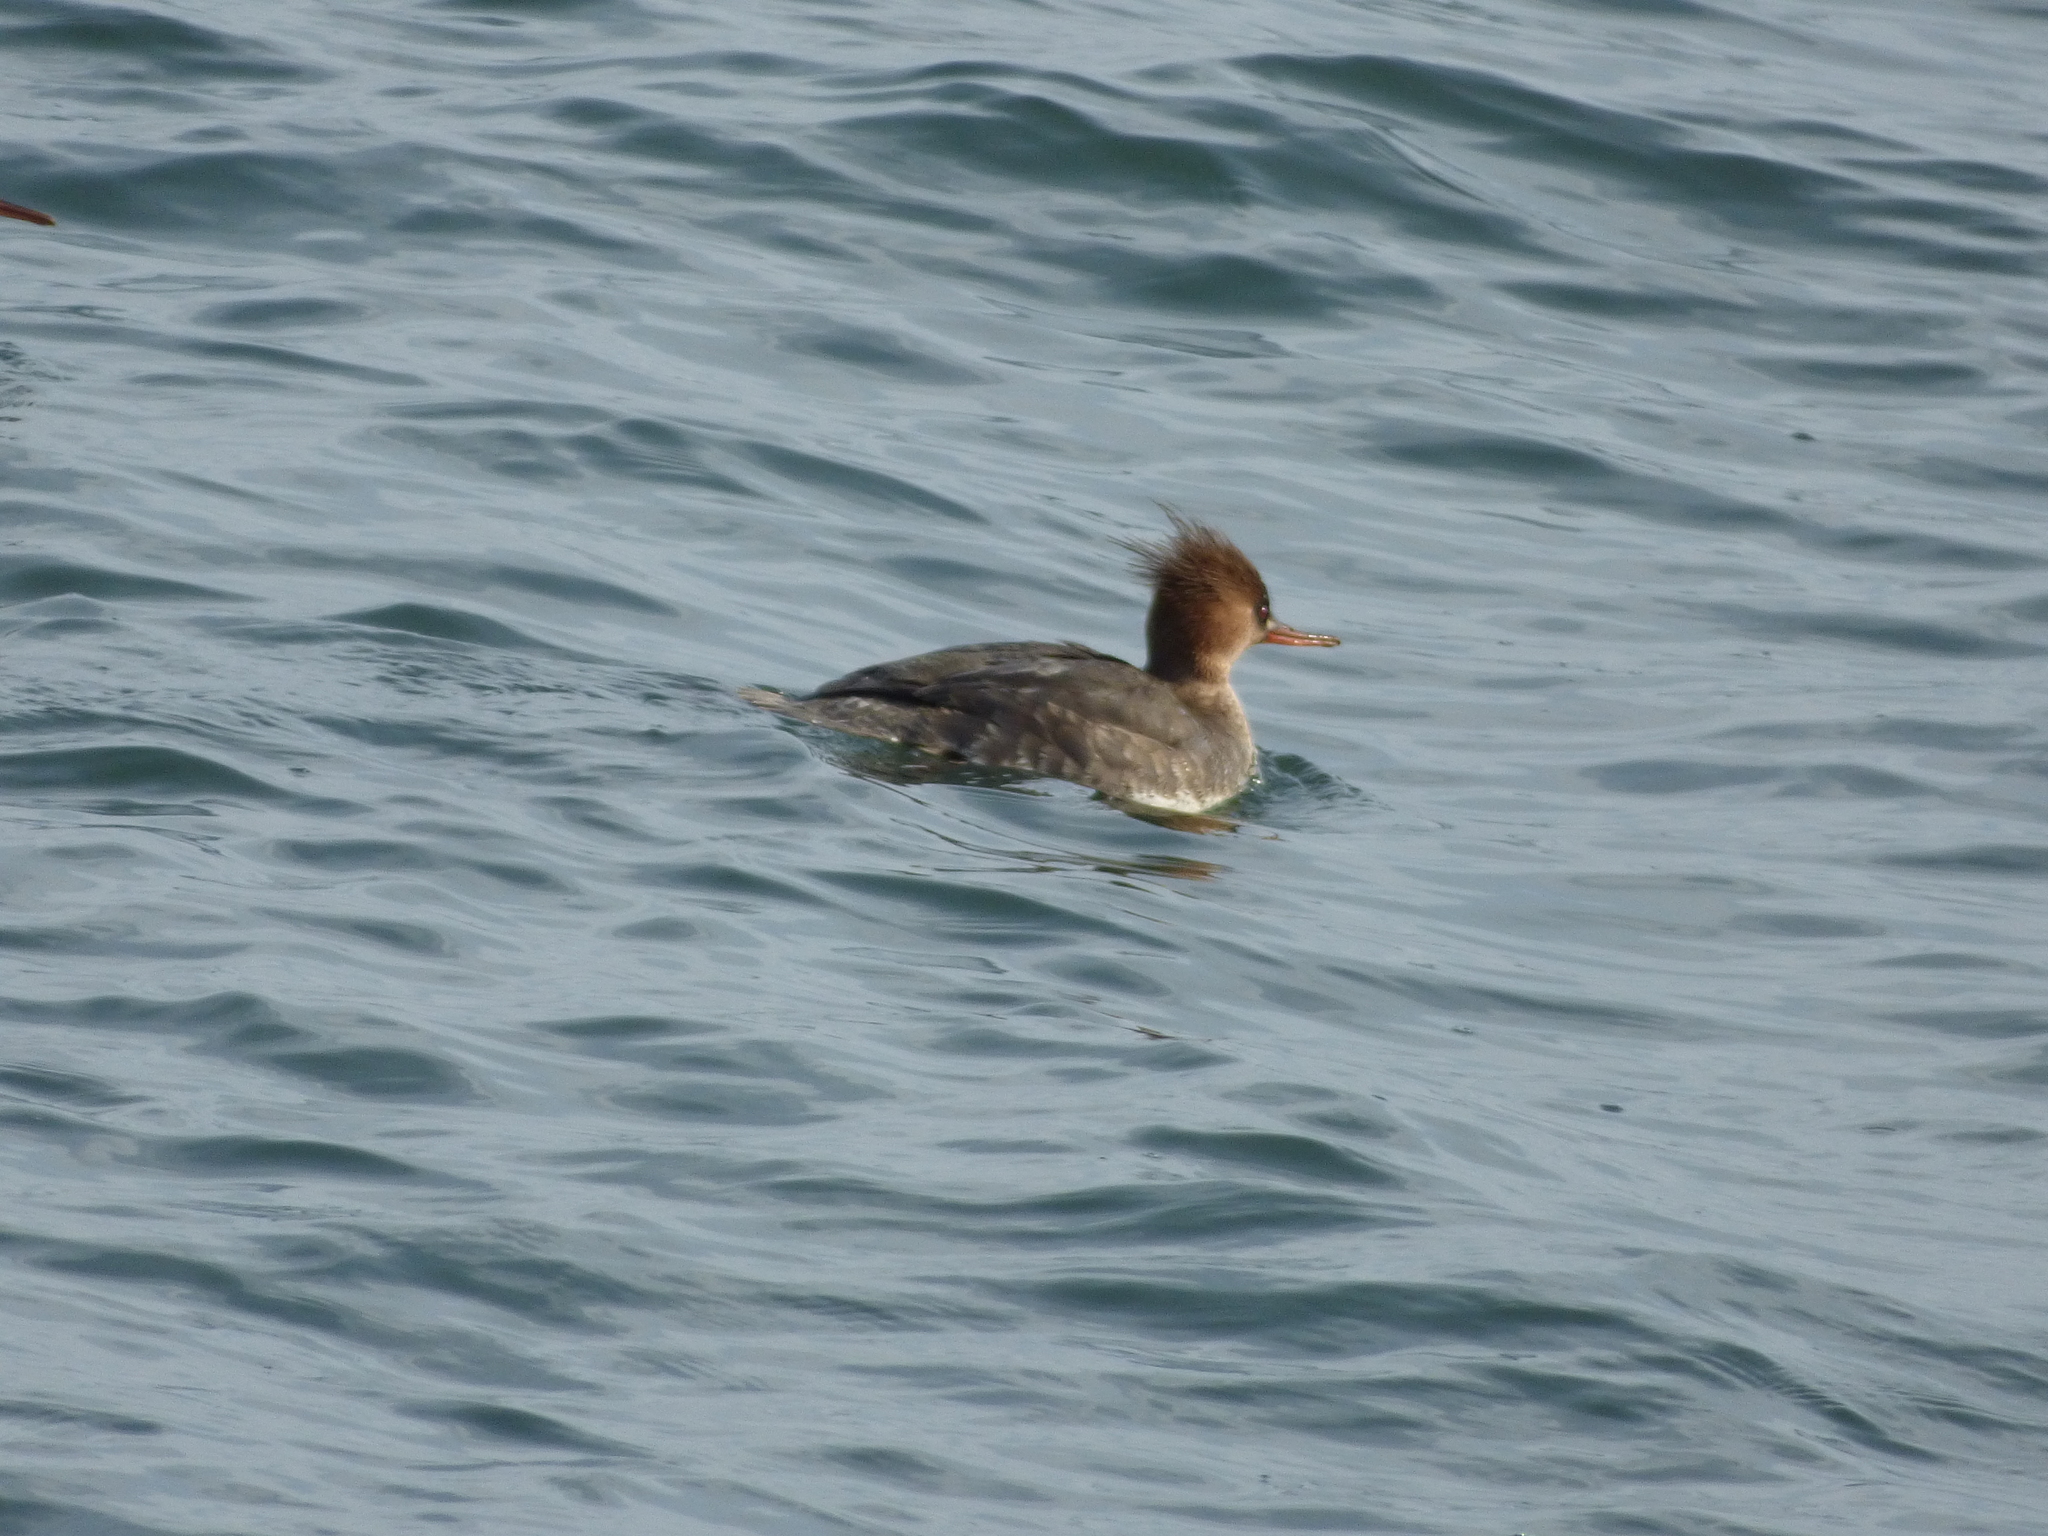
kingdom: Animalia
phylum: Chordata
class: Aves
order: Anseriformes
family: Anatidae
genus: Mergus
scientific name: Mergus serrator
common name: Red-breasted merganser
